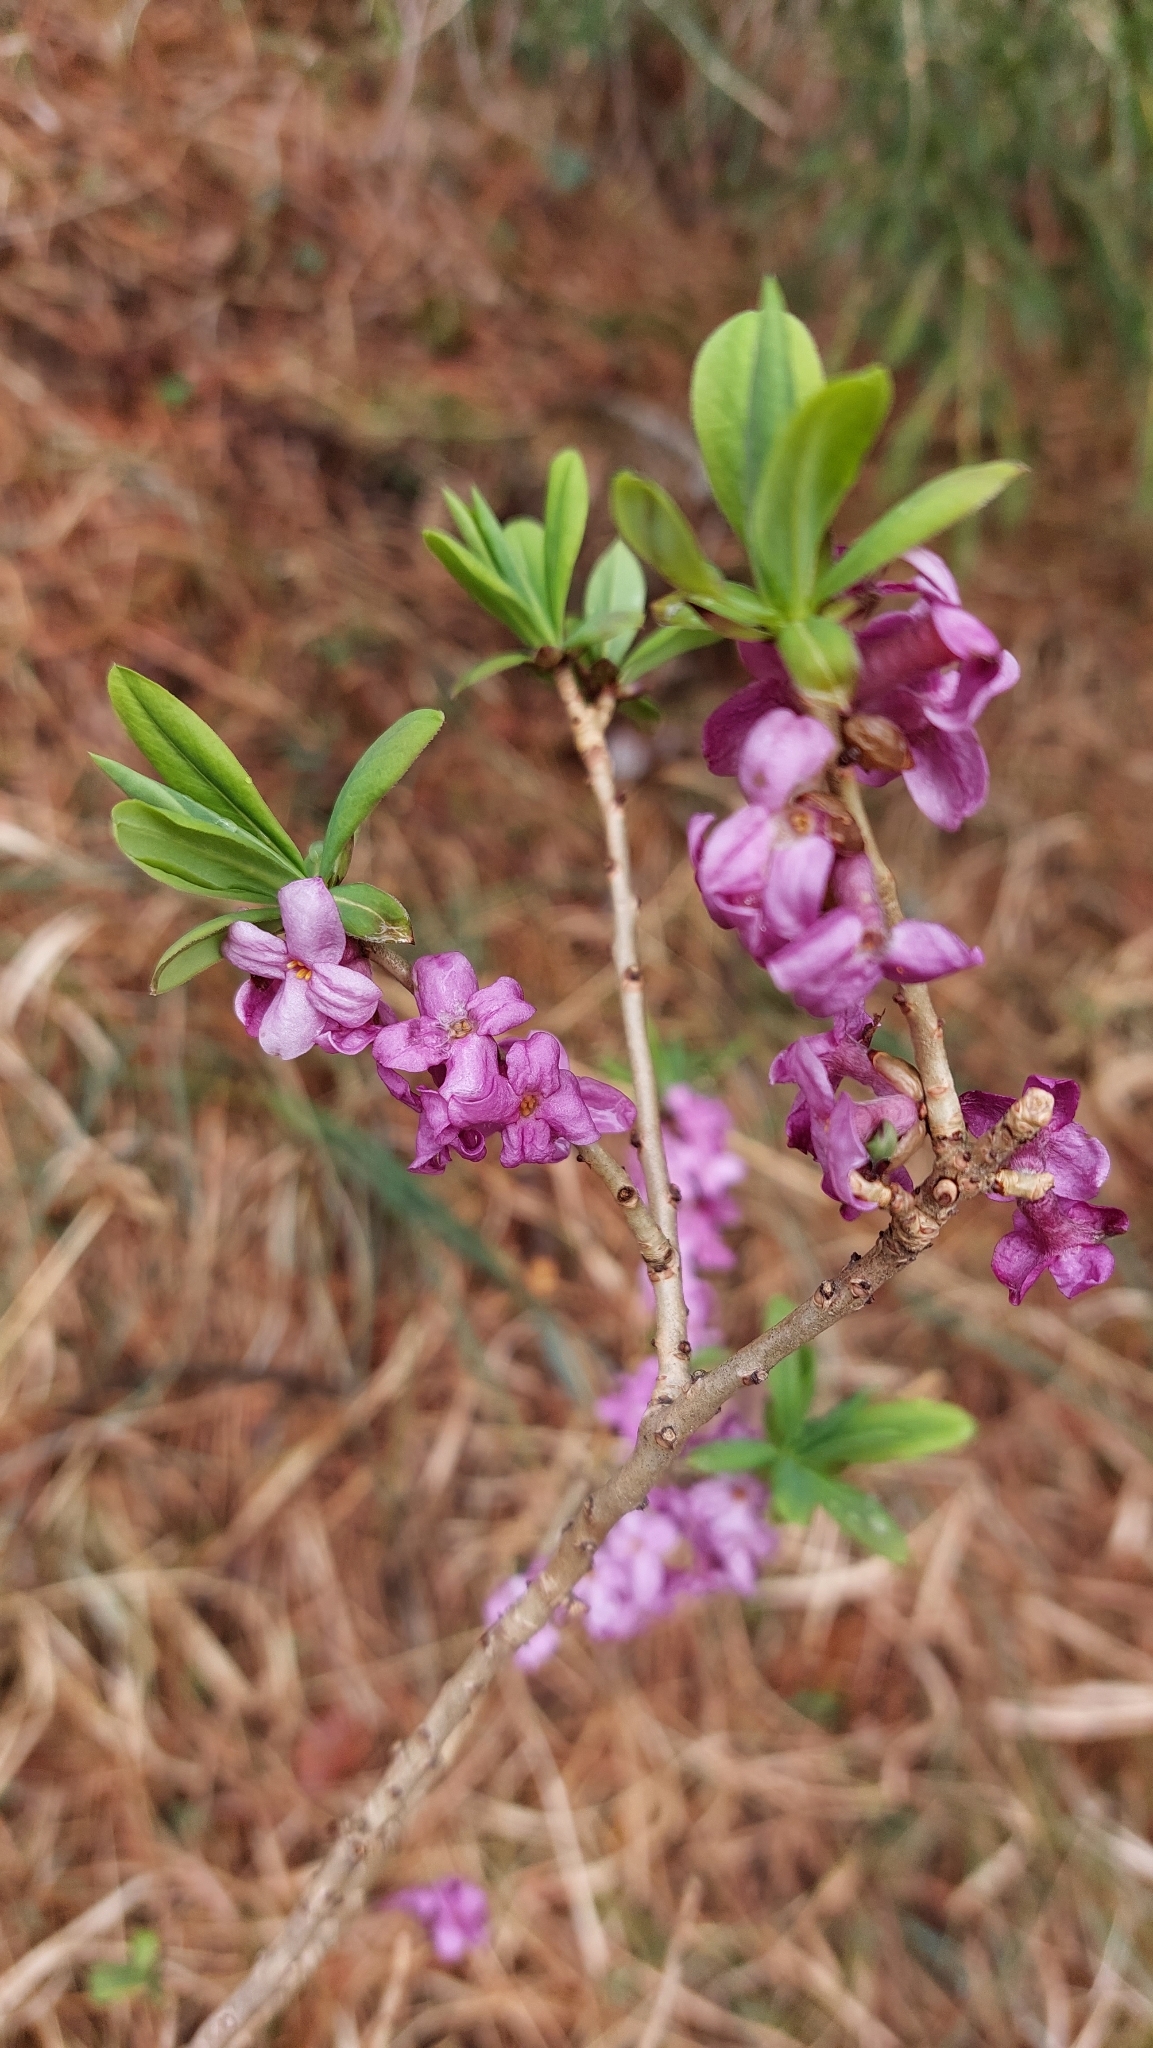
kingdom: Plantae
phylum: Tracheophyta
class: Magnoliopsida
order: Malvales
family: Thymelaeaceae
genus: Daphne
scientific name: Daphne mezereum
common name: Mezereon
